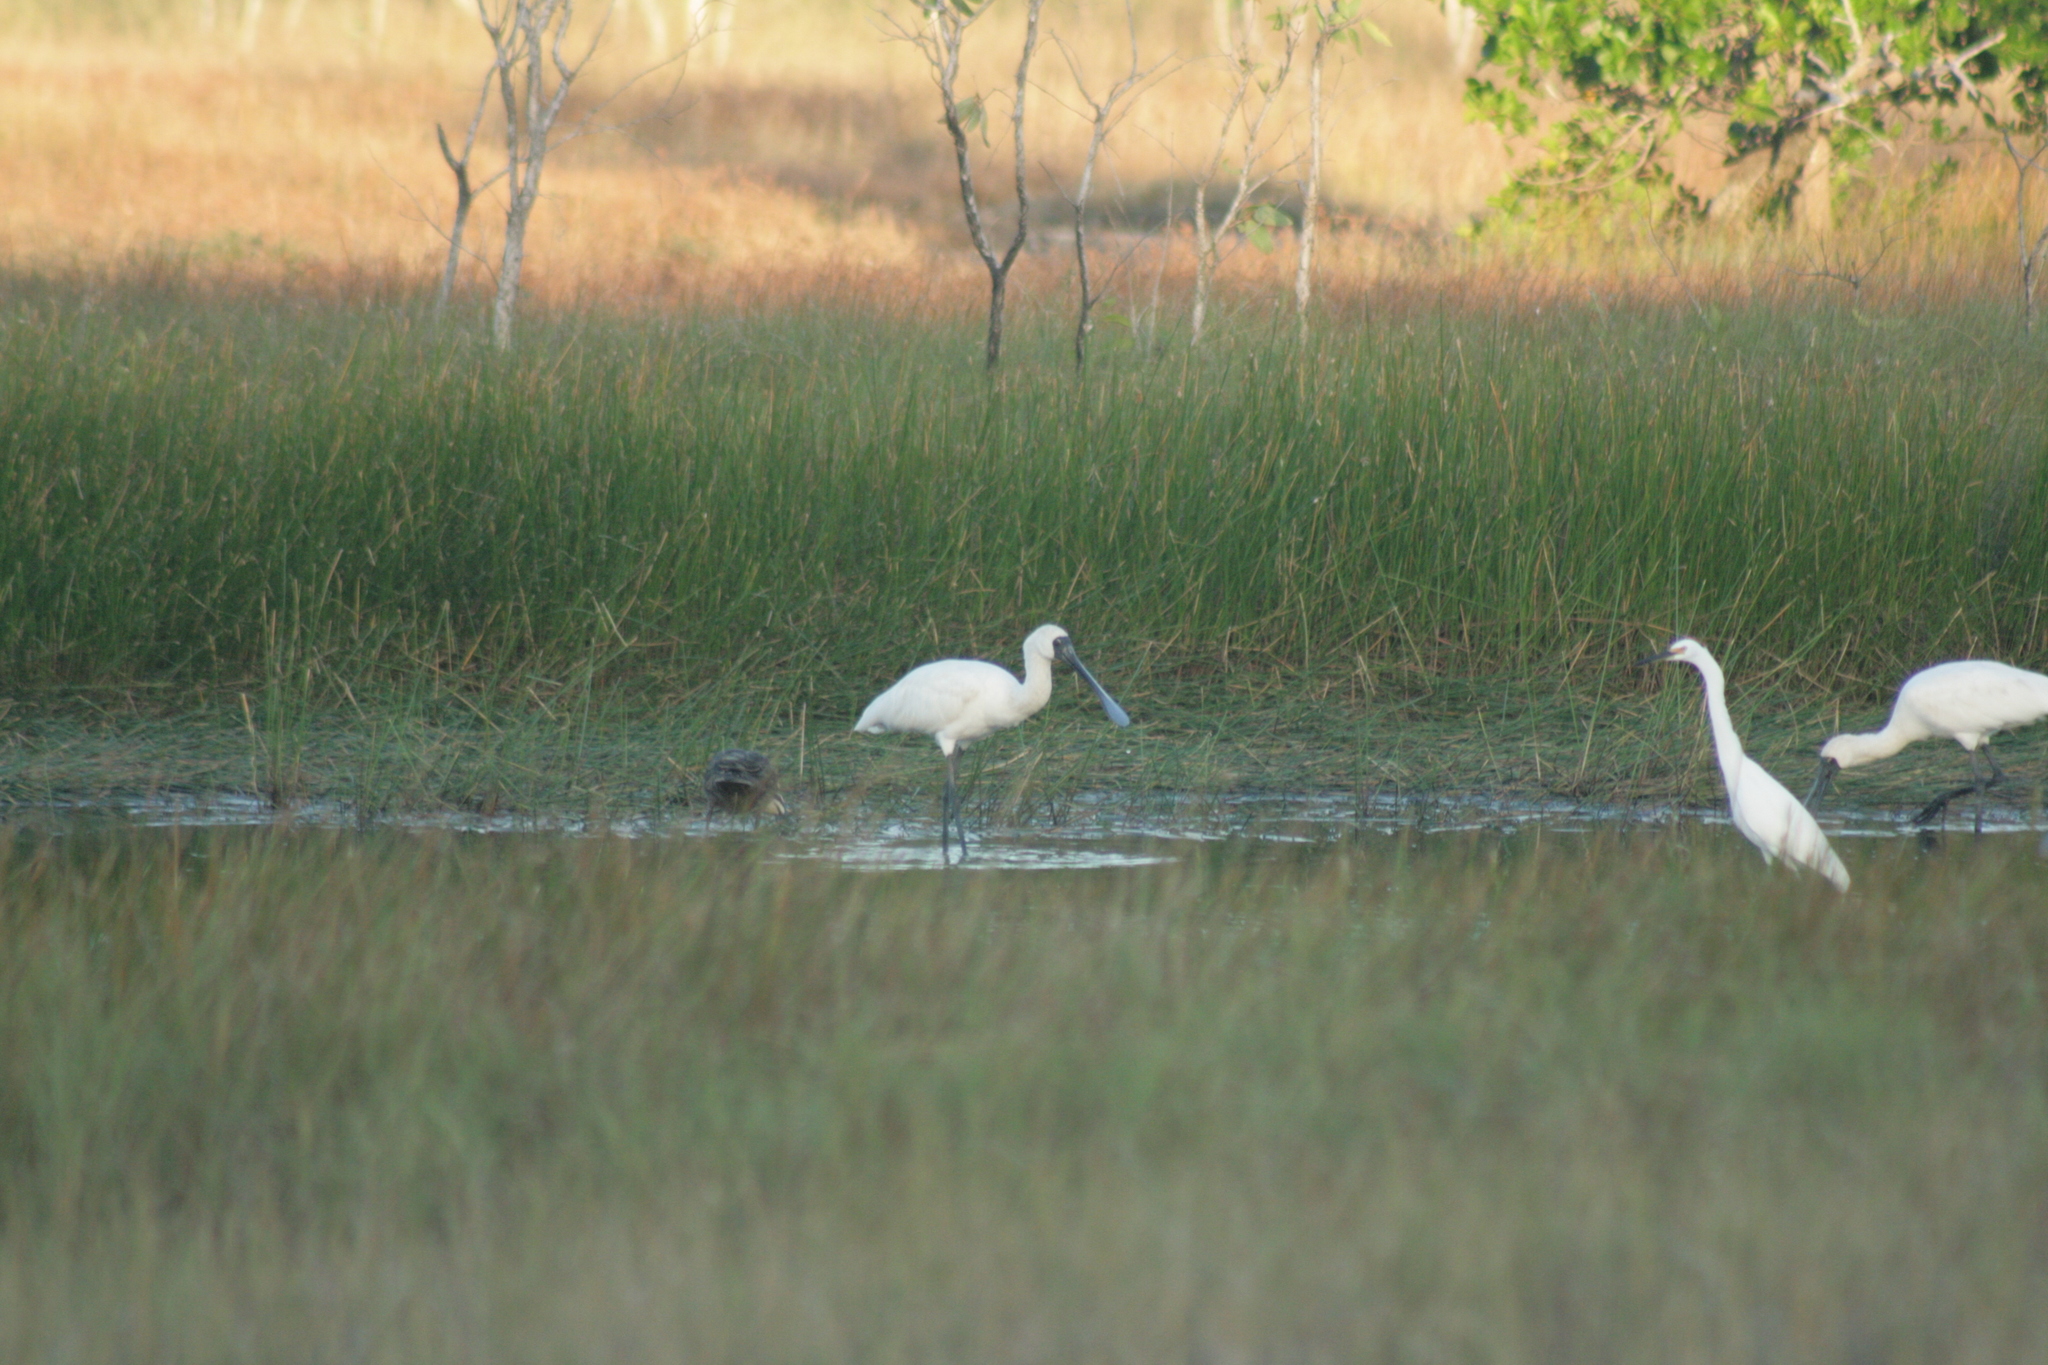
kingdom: Animalia
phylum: Chordata
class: Aves
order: Pelecaniformes
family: Threskiornithidae
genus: Platalea
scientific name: Platalea regia
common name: Royal spoonbill
